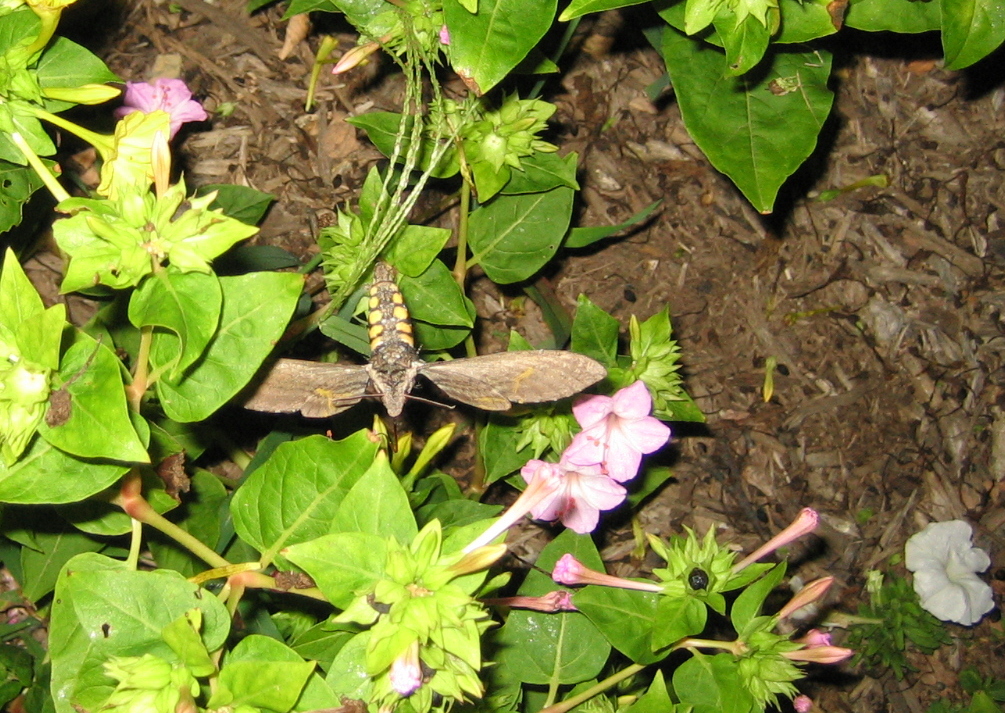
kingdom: Animalia
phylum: Arthropoda
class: Insecta
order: Lepidoptera
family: Sphingidae
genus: Manduca
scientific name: Manduca sexta
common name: Carolina sphinx
